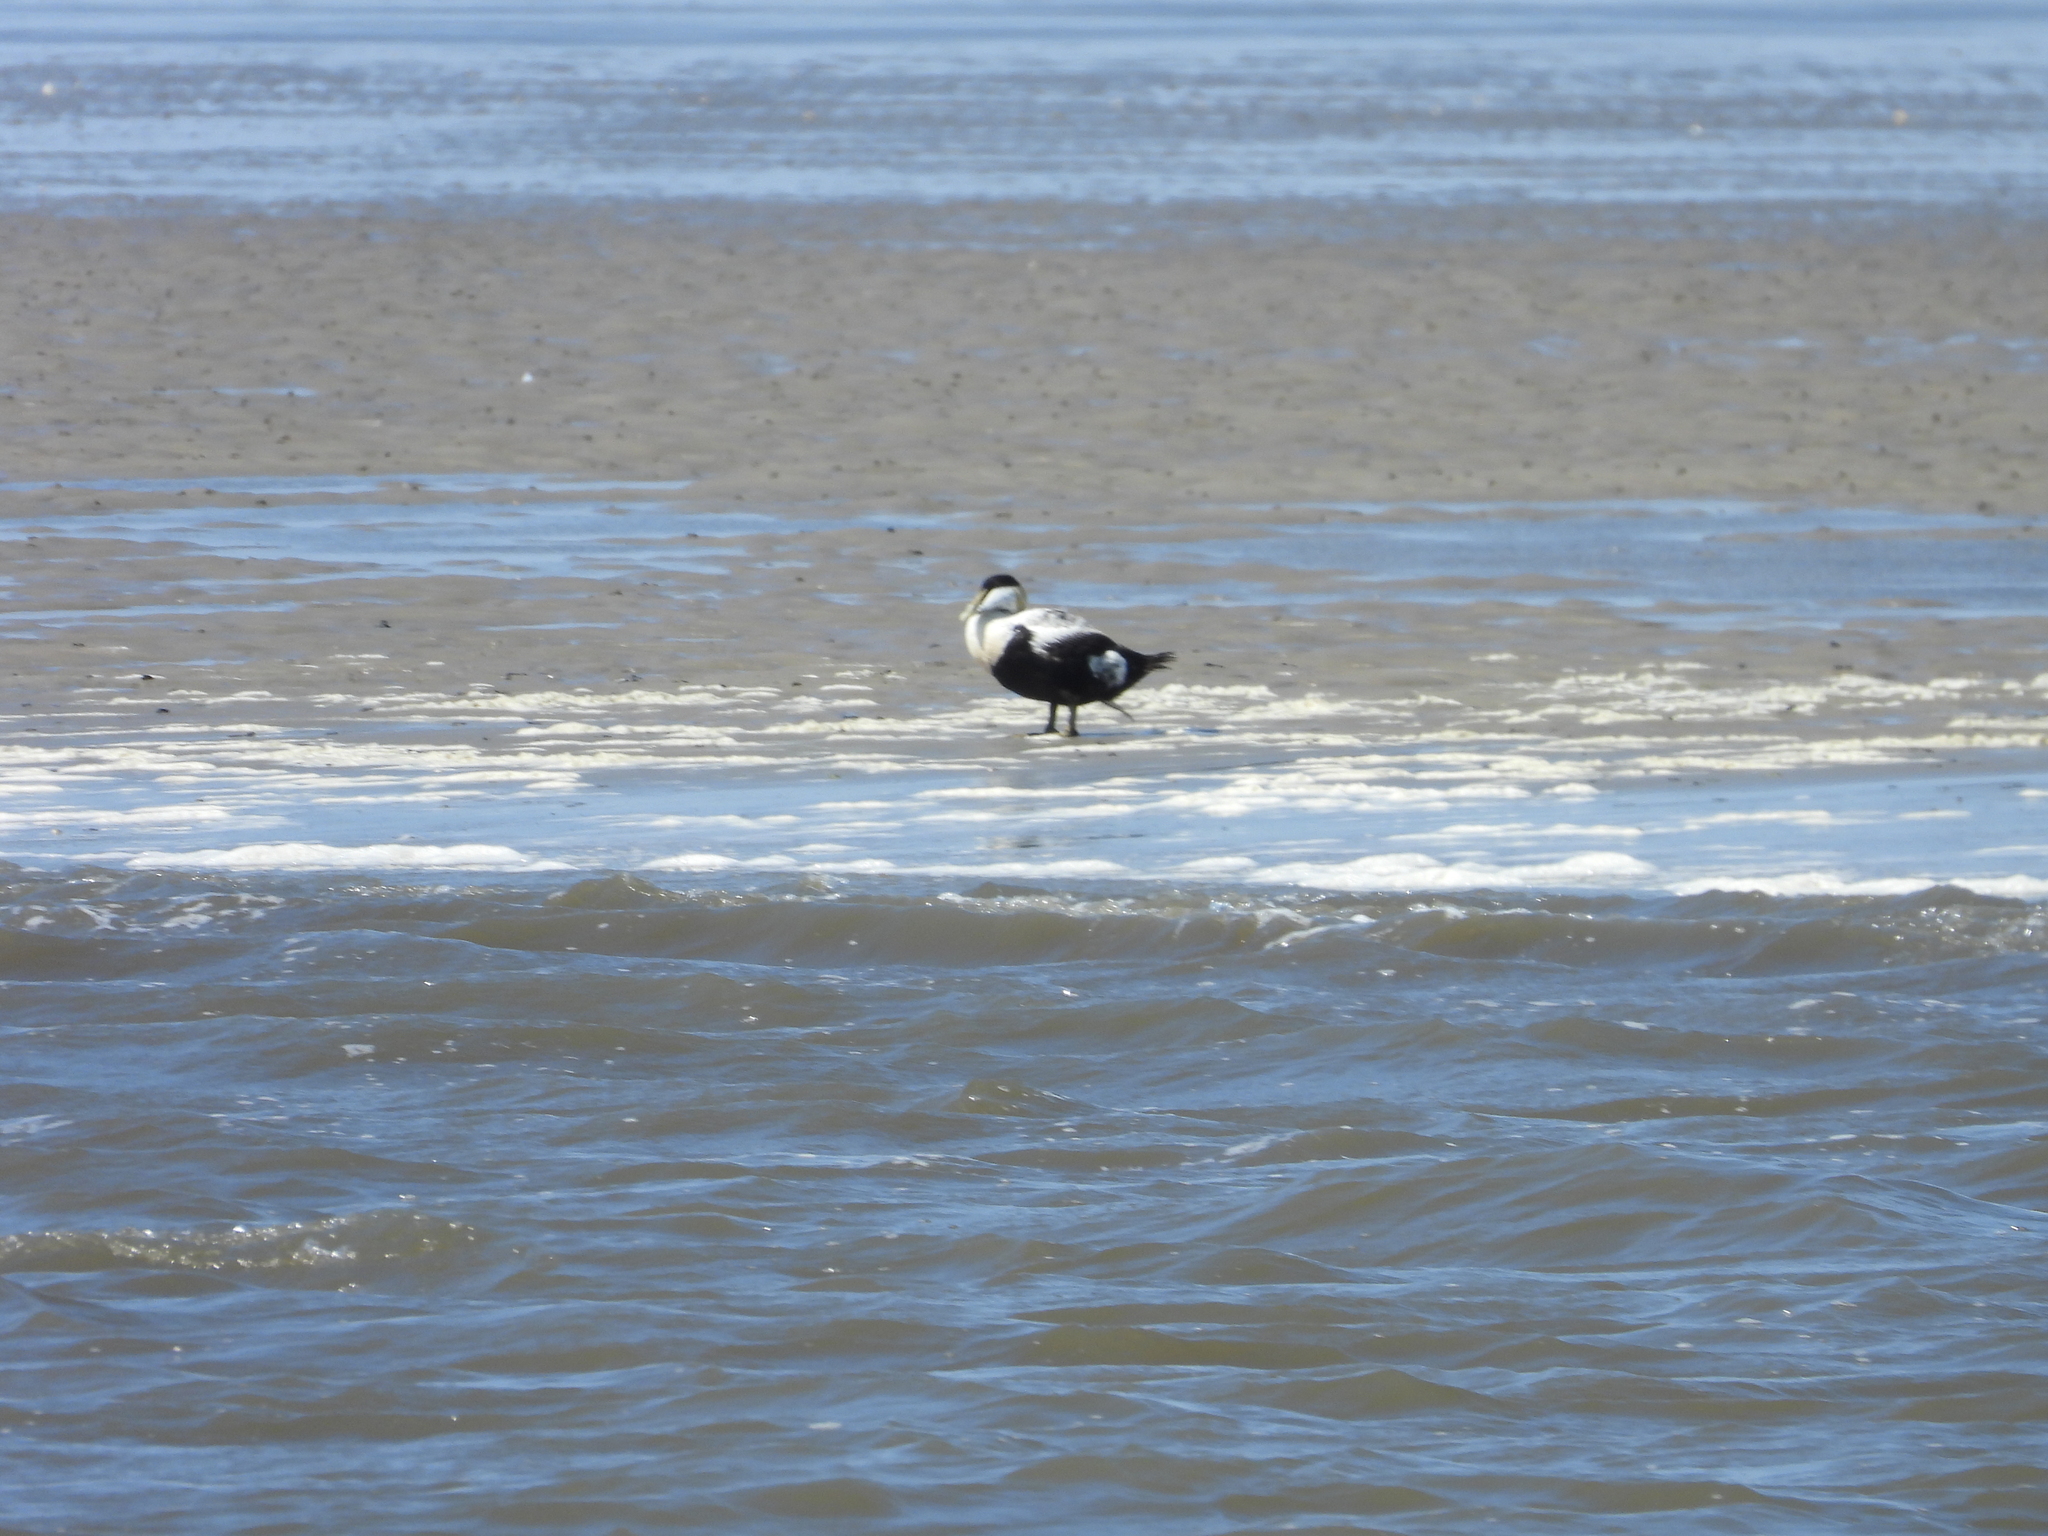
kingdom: Animalia
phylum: Chordata
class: Aves
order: Anseriformes
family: Anatidae
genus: Somateria
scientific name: Somateria mollissima
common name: Common eider
